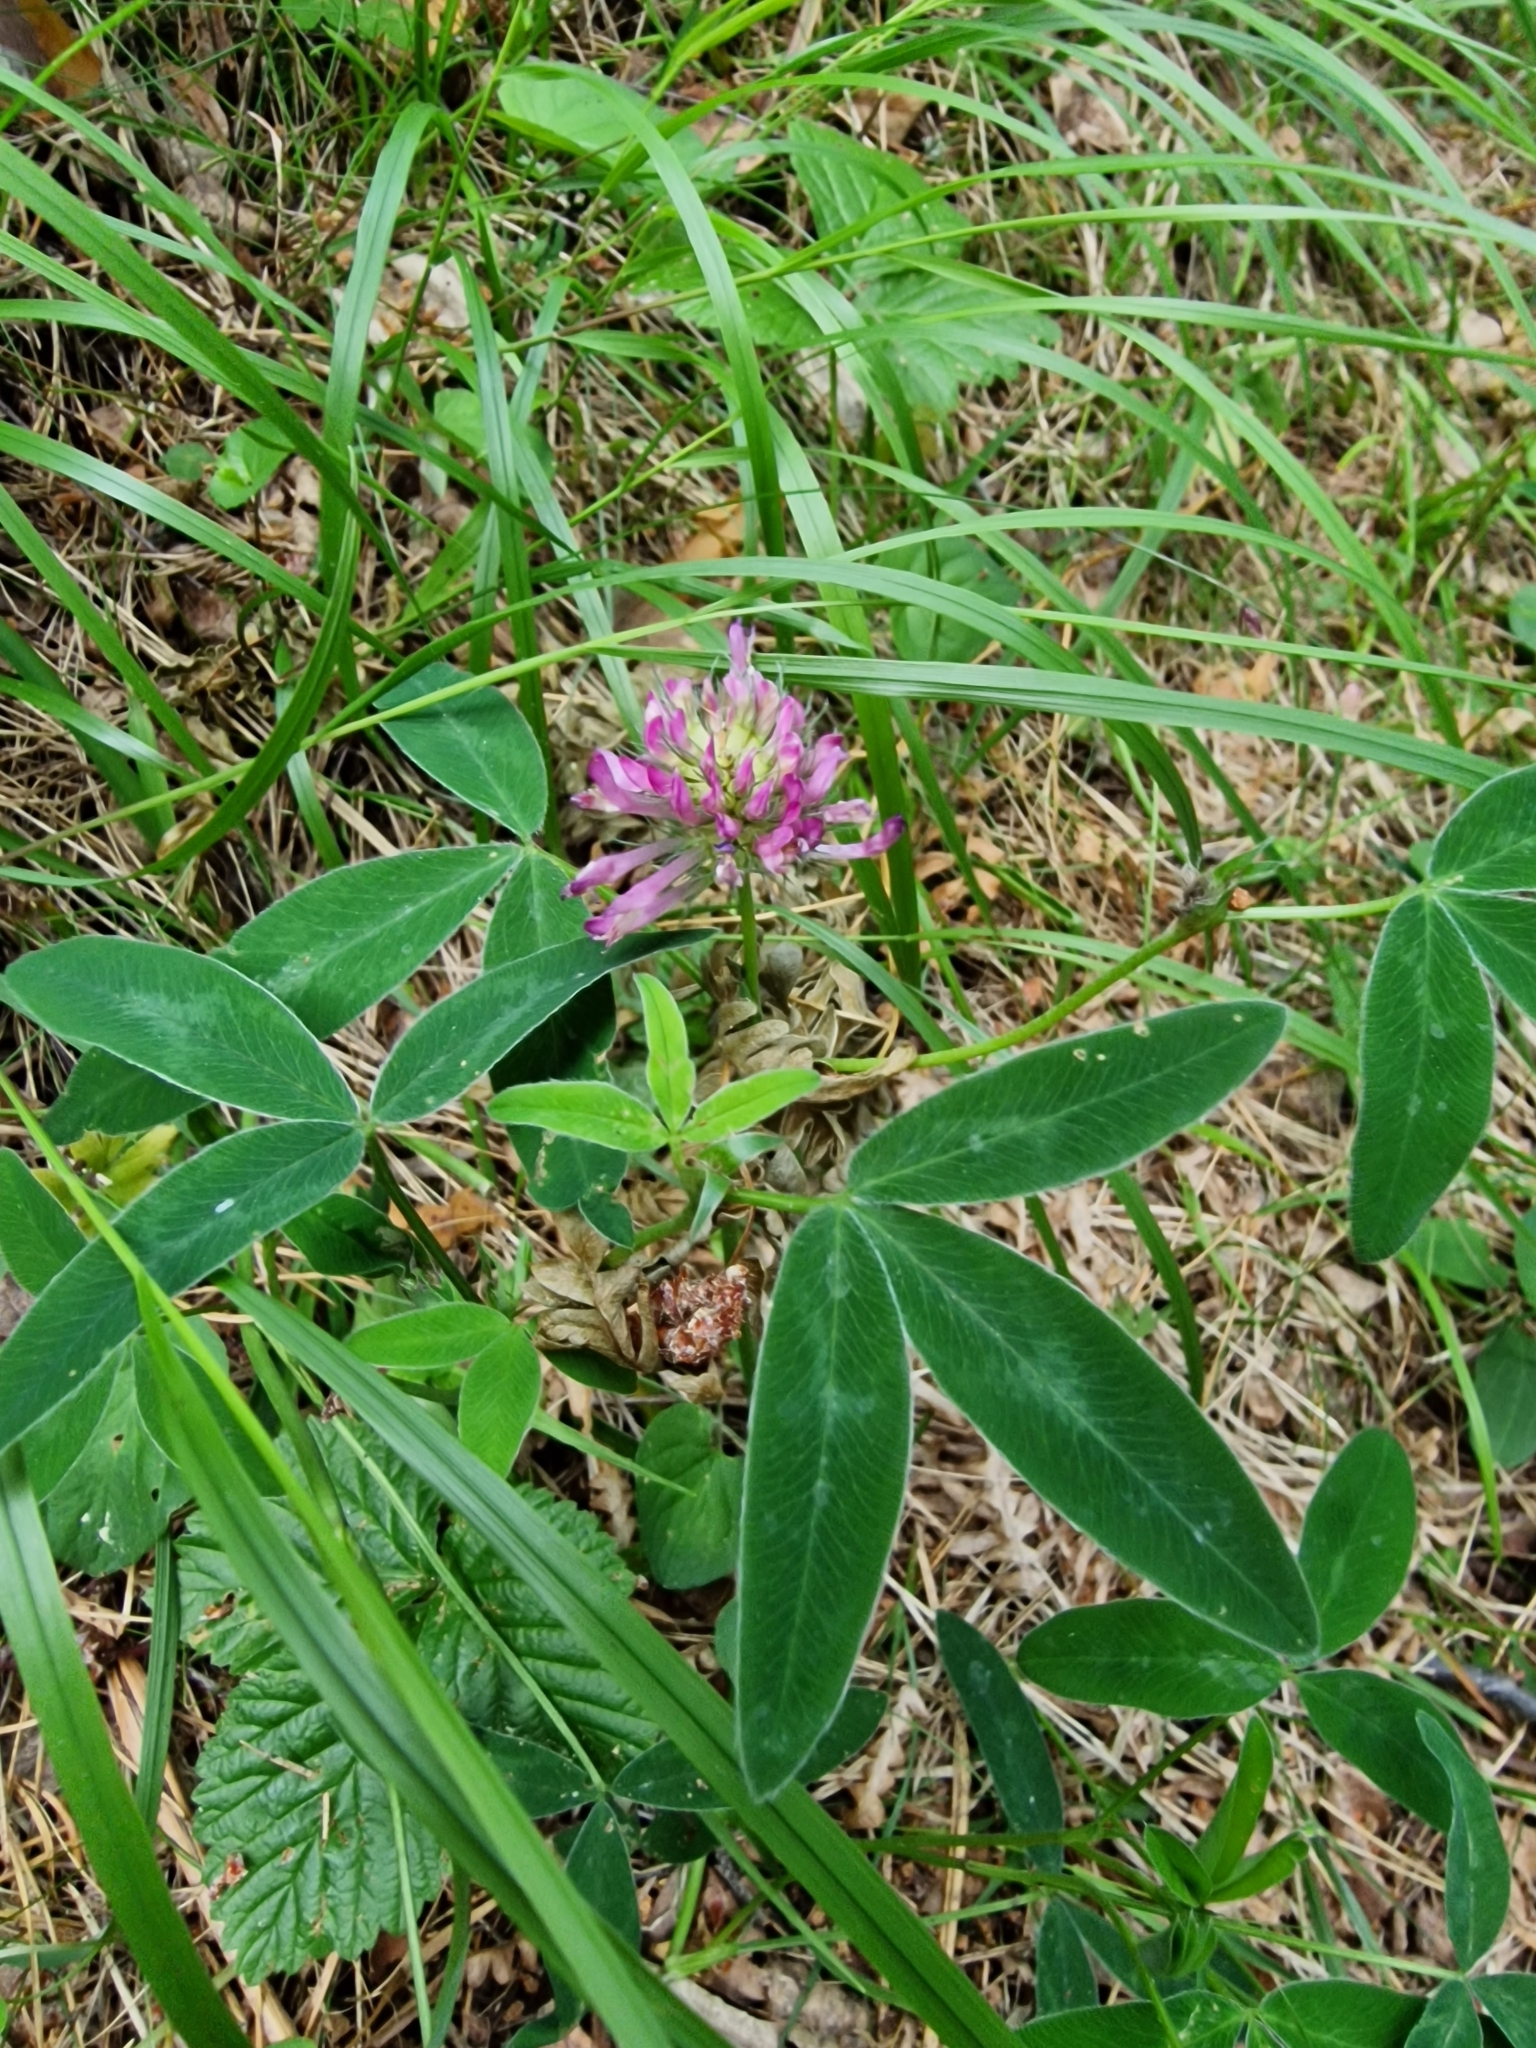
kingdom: Plantae
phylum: Tracheophyta
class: Magnoliopsida
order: Fabales
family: Fabaceae
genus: Trifolium
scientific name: Trifolium medium
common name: Zigzag clover
